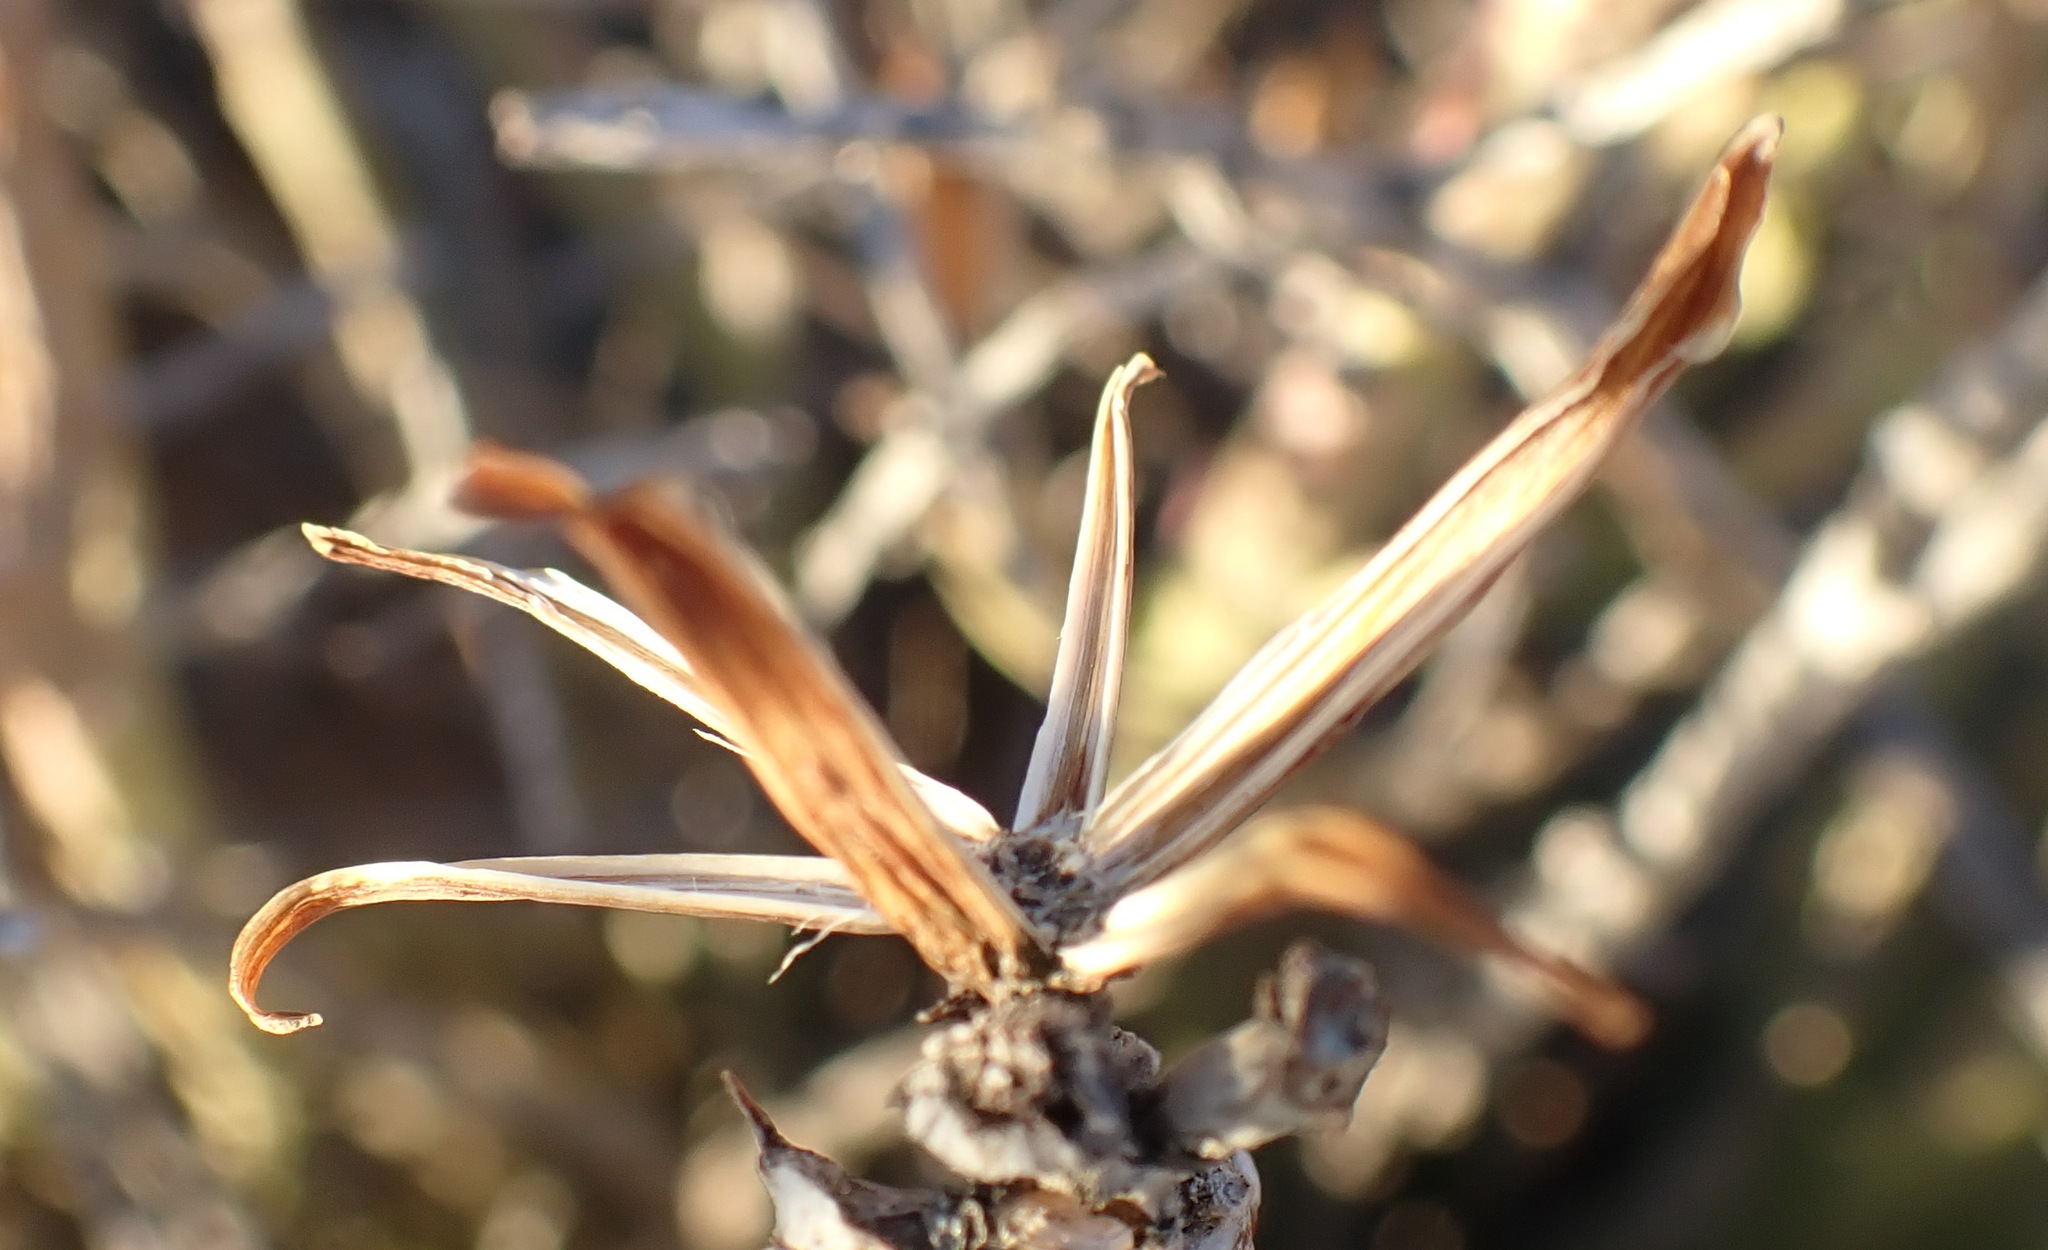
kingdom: Plantae
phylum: Tracheophyta
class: Magnoliopsida
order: Asterales
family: Asteraceae
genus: Curio
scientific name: Curio avasimontanus
